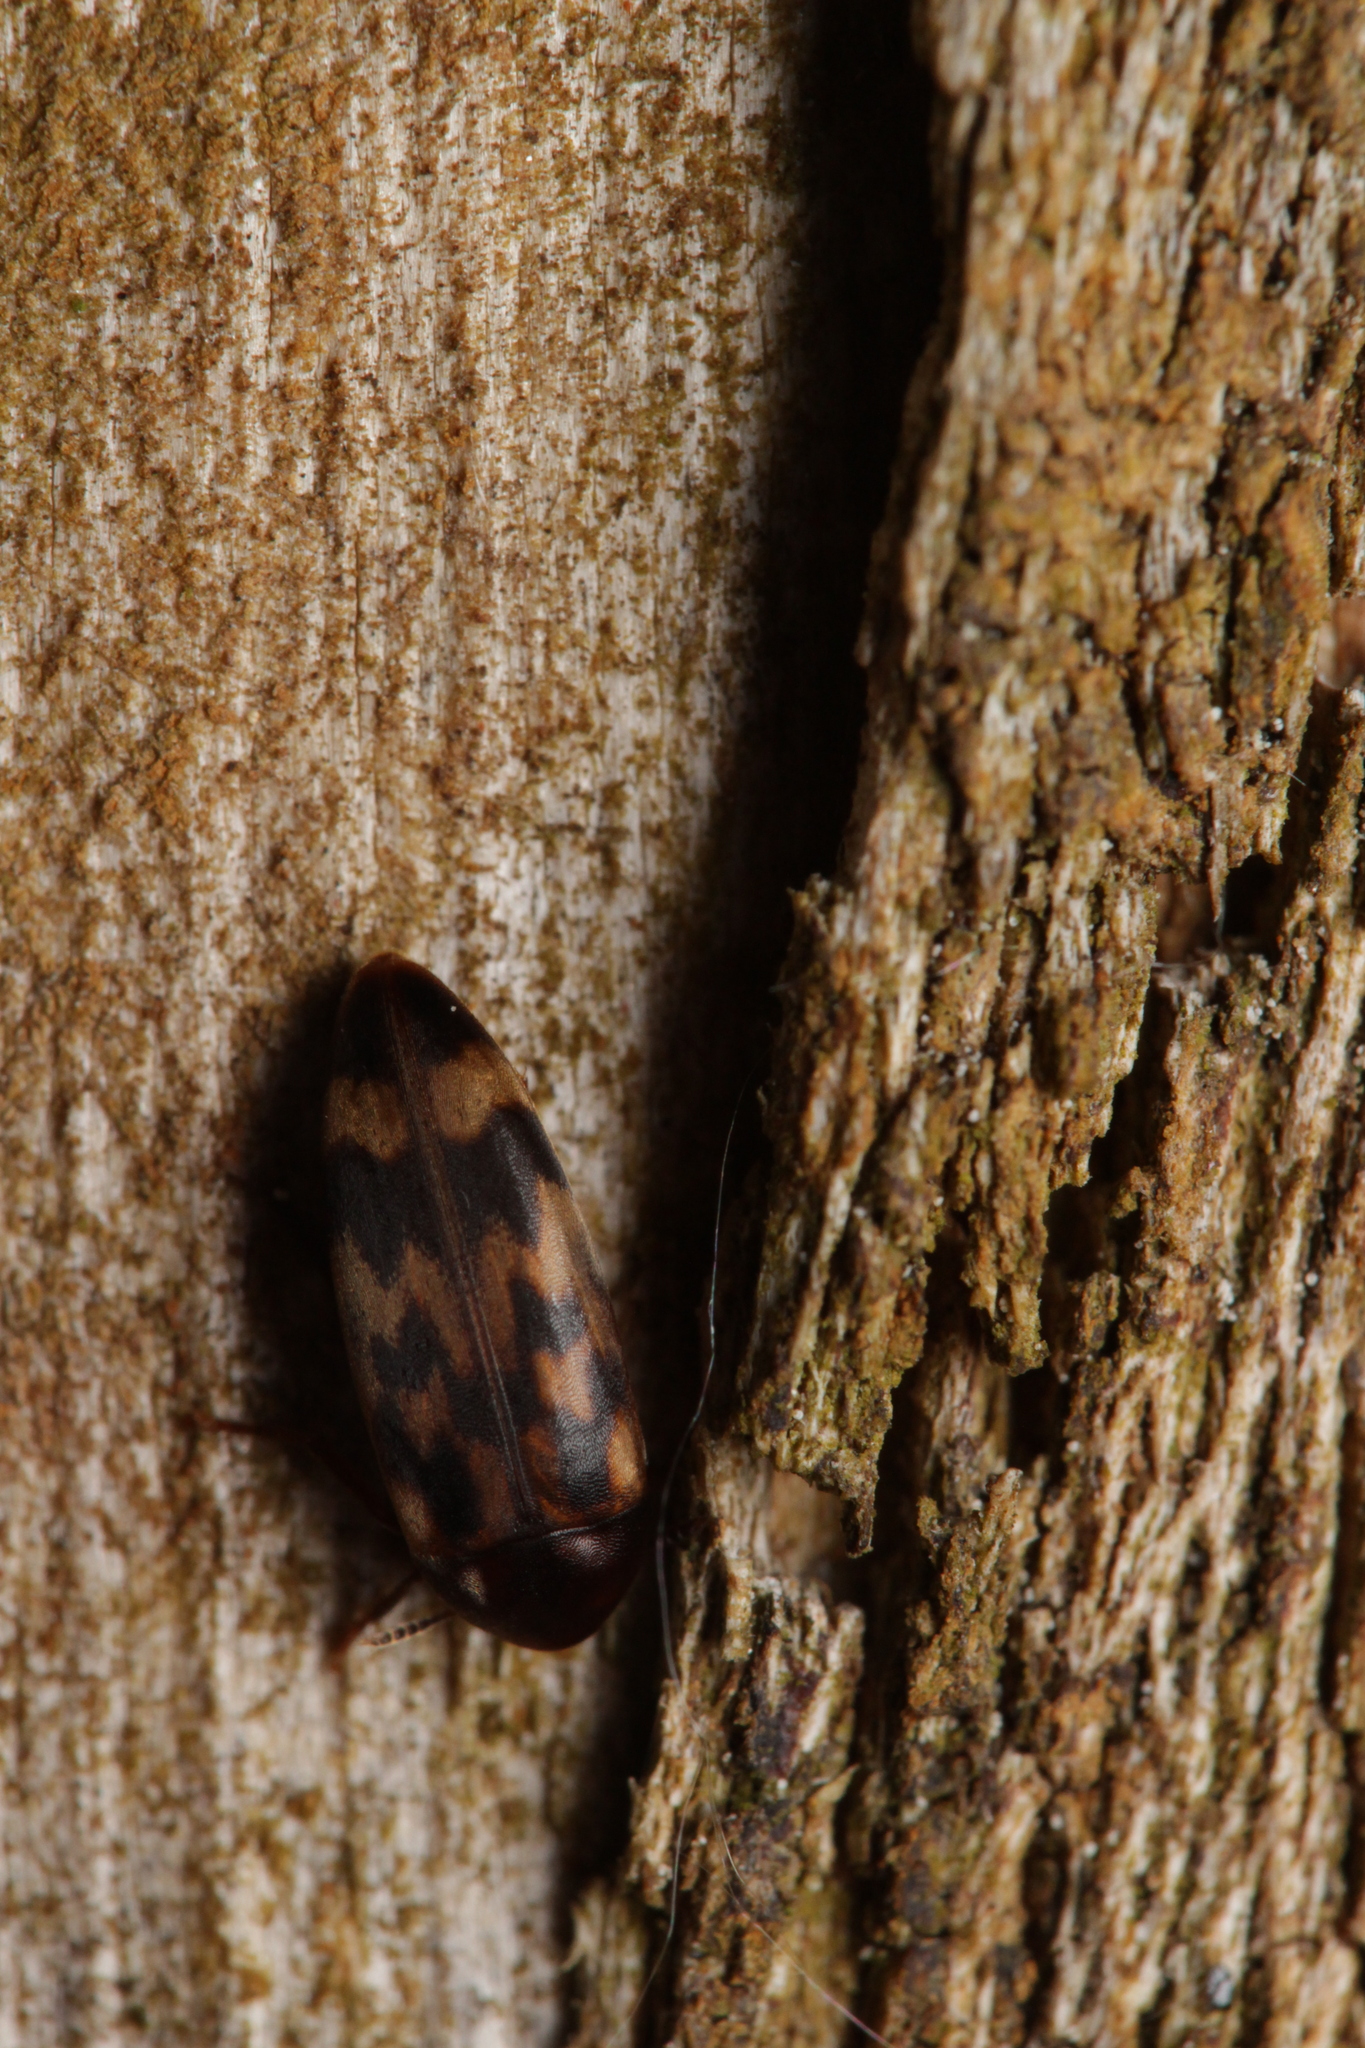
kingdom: Animalia
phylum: Arthropoda
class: Insecta
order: Coleoptera
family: Melandryidae
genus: Orchesia
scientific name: Orchesia undulata
